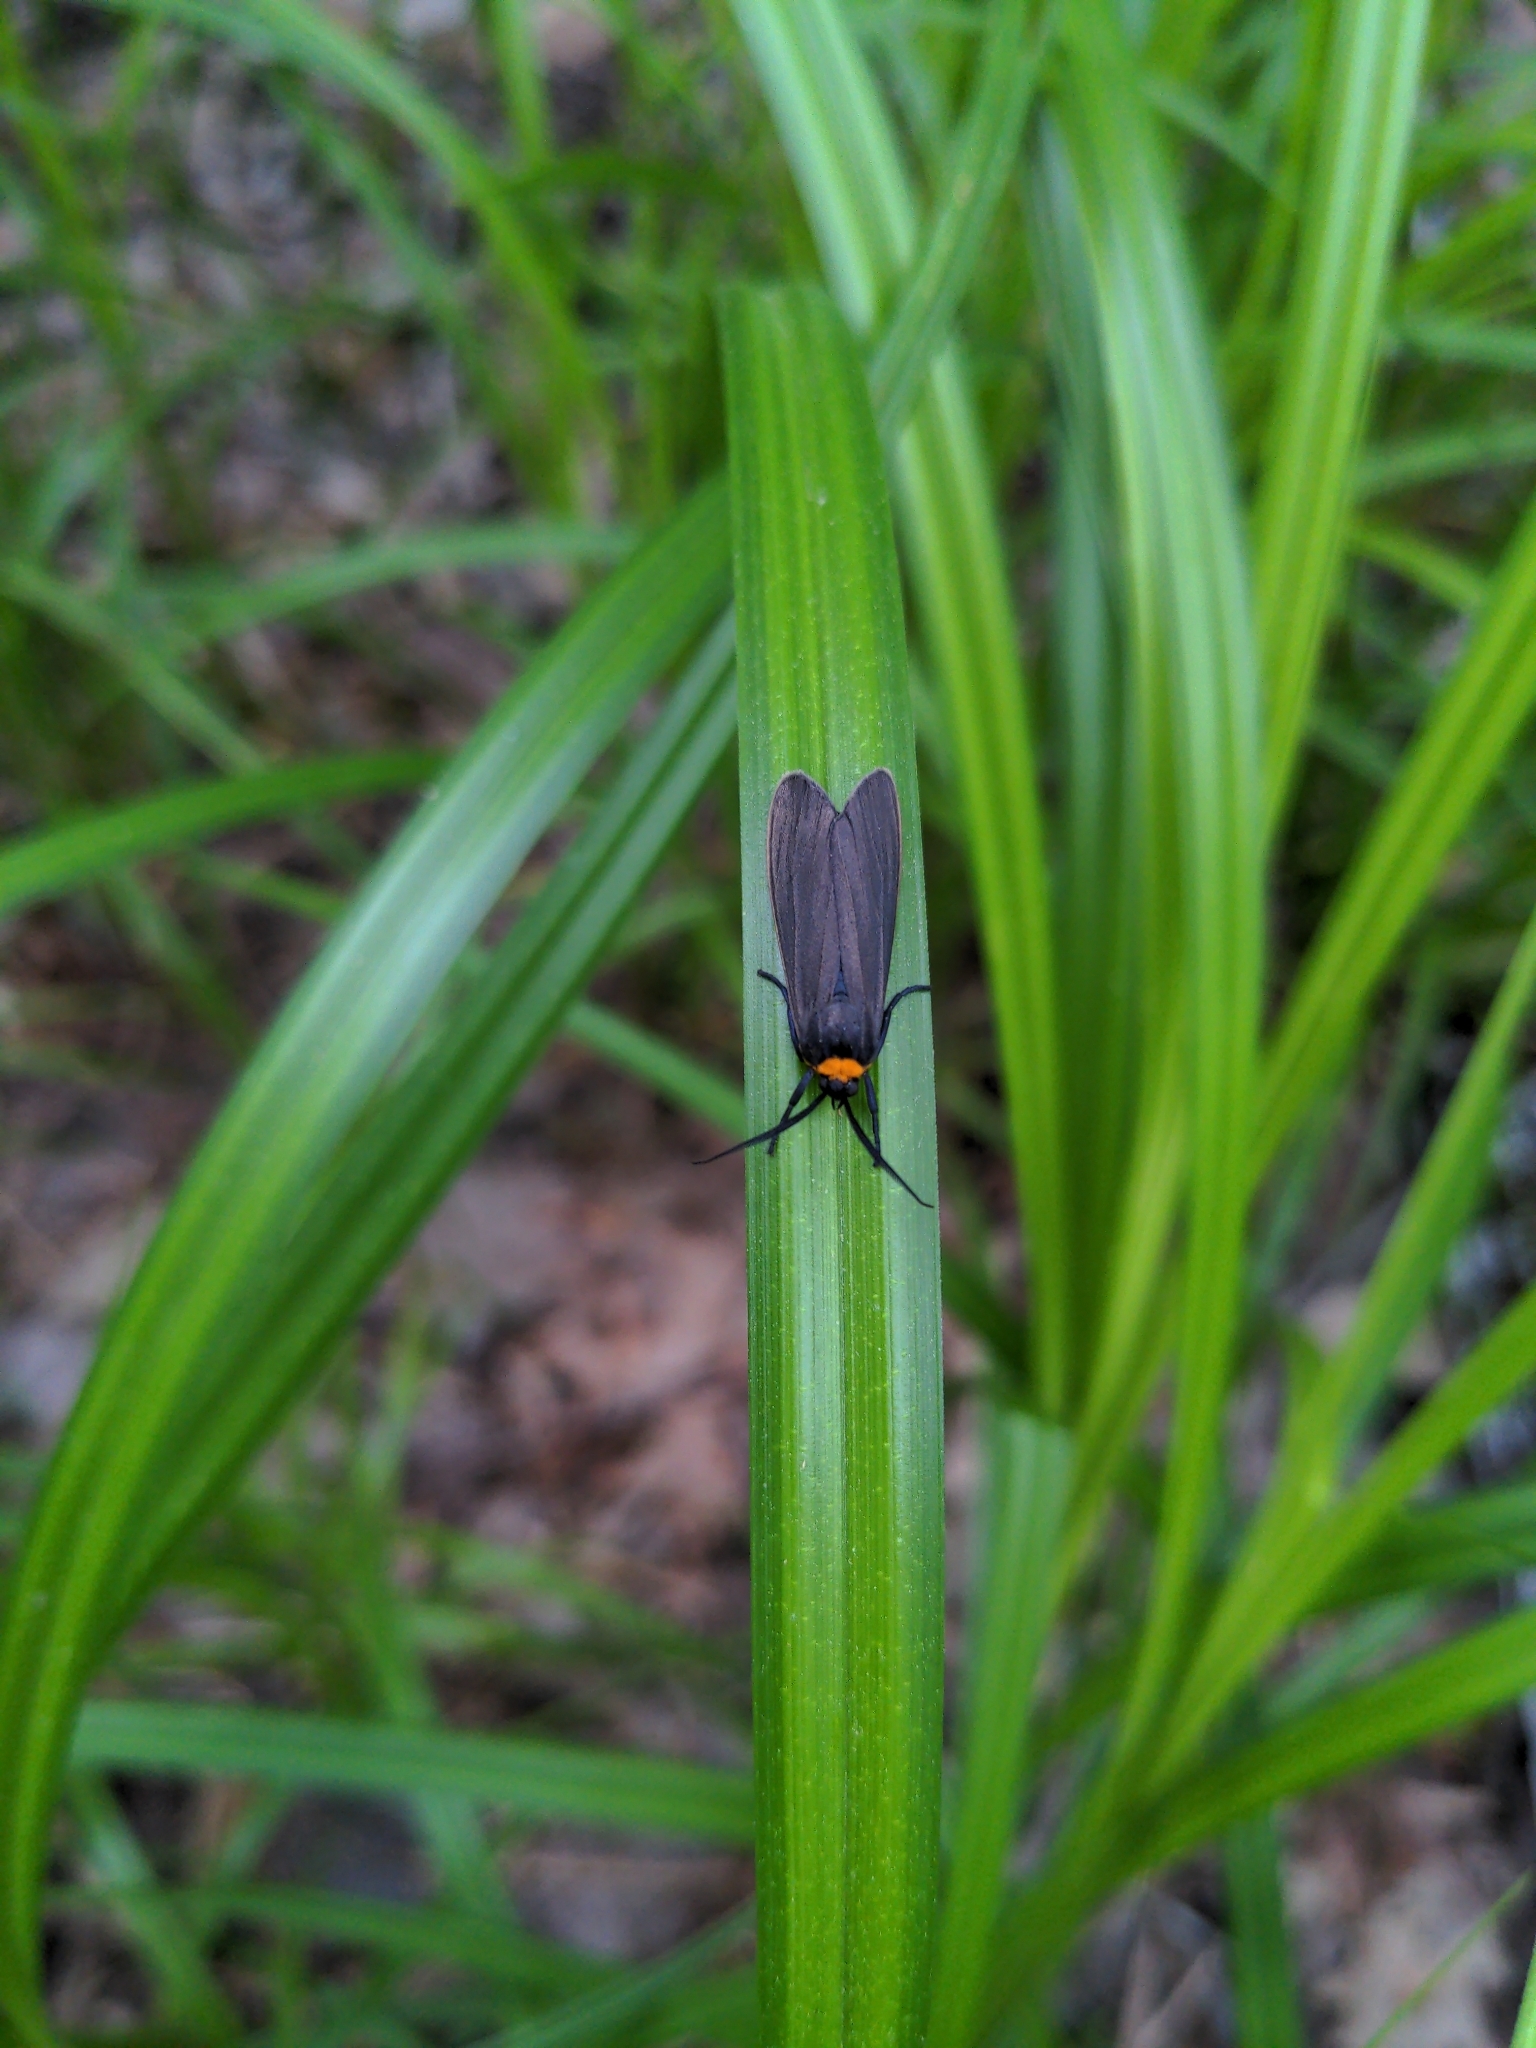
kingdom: Animalia
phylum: Arthropoda
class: Insecta
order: Lepidoptera
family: Erebidae
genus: Cisseps
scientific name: Cisseps fulvicollis
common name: Yellow-collared scape moth
